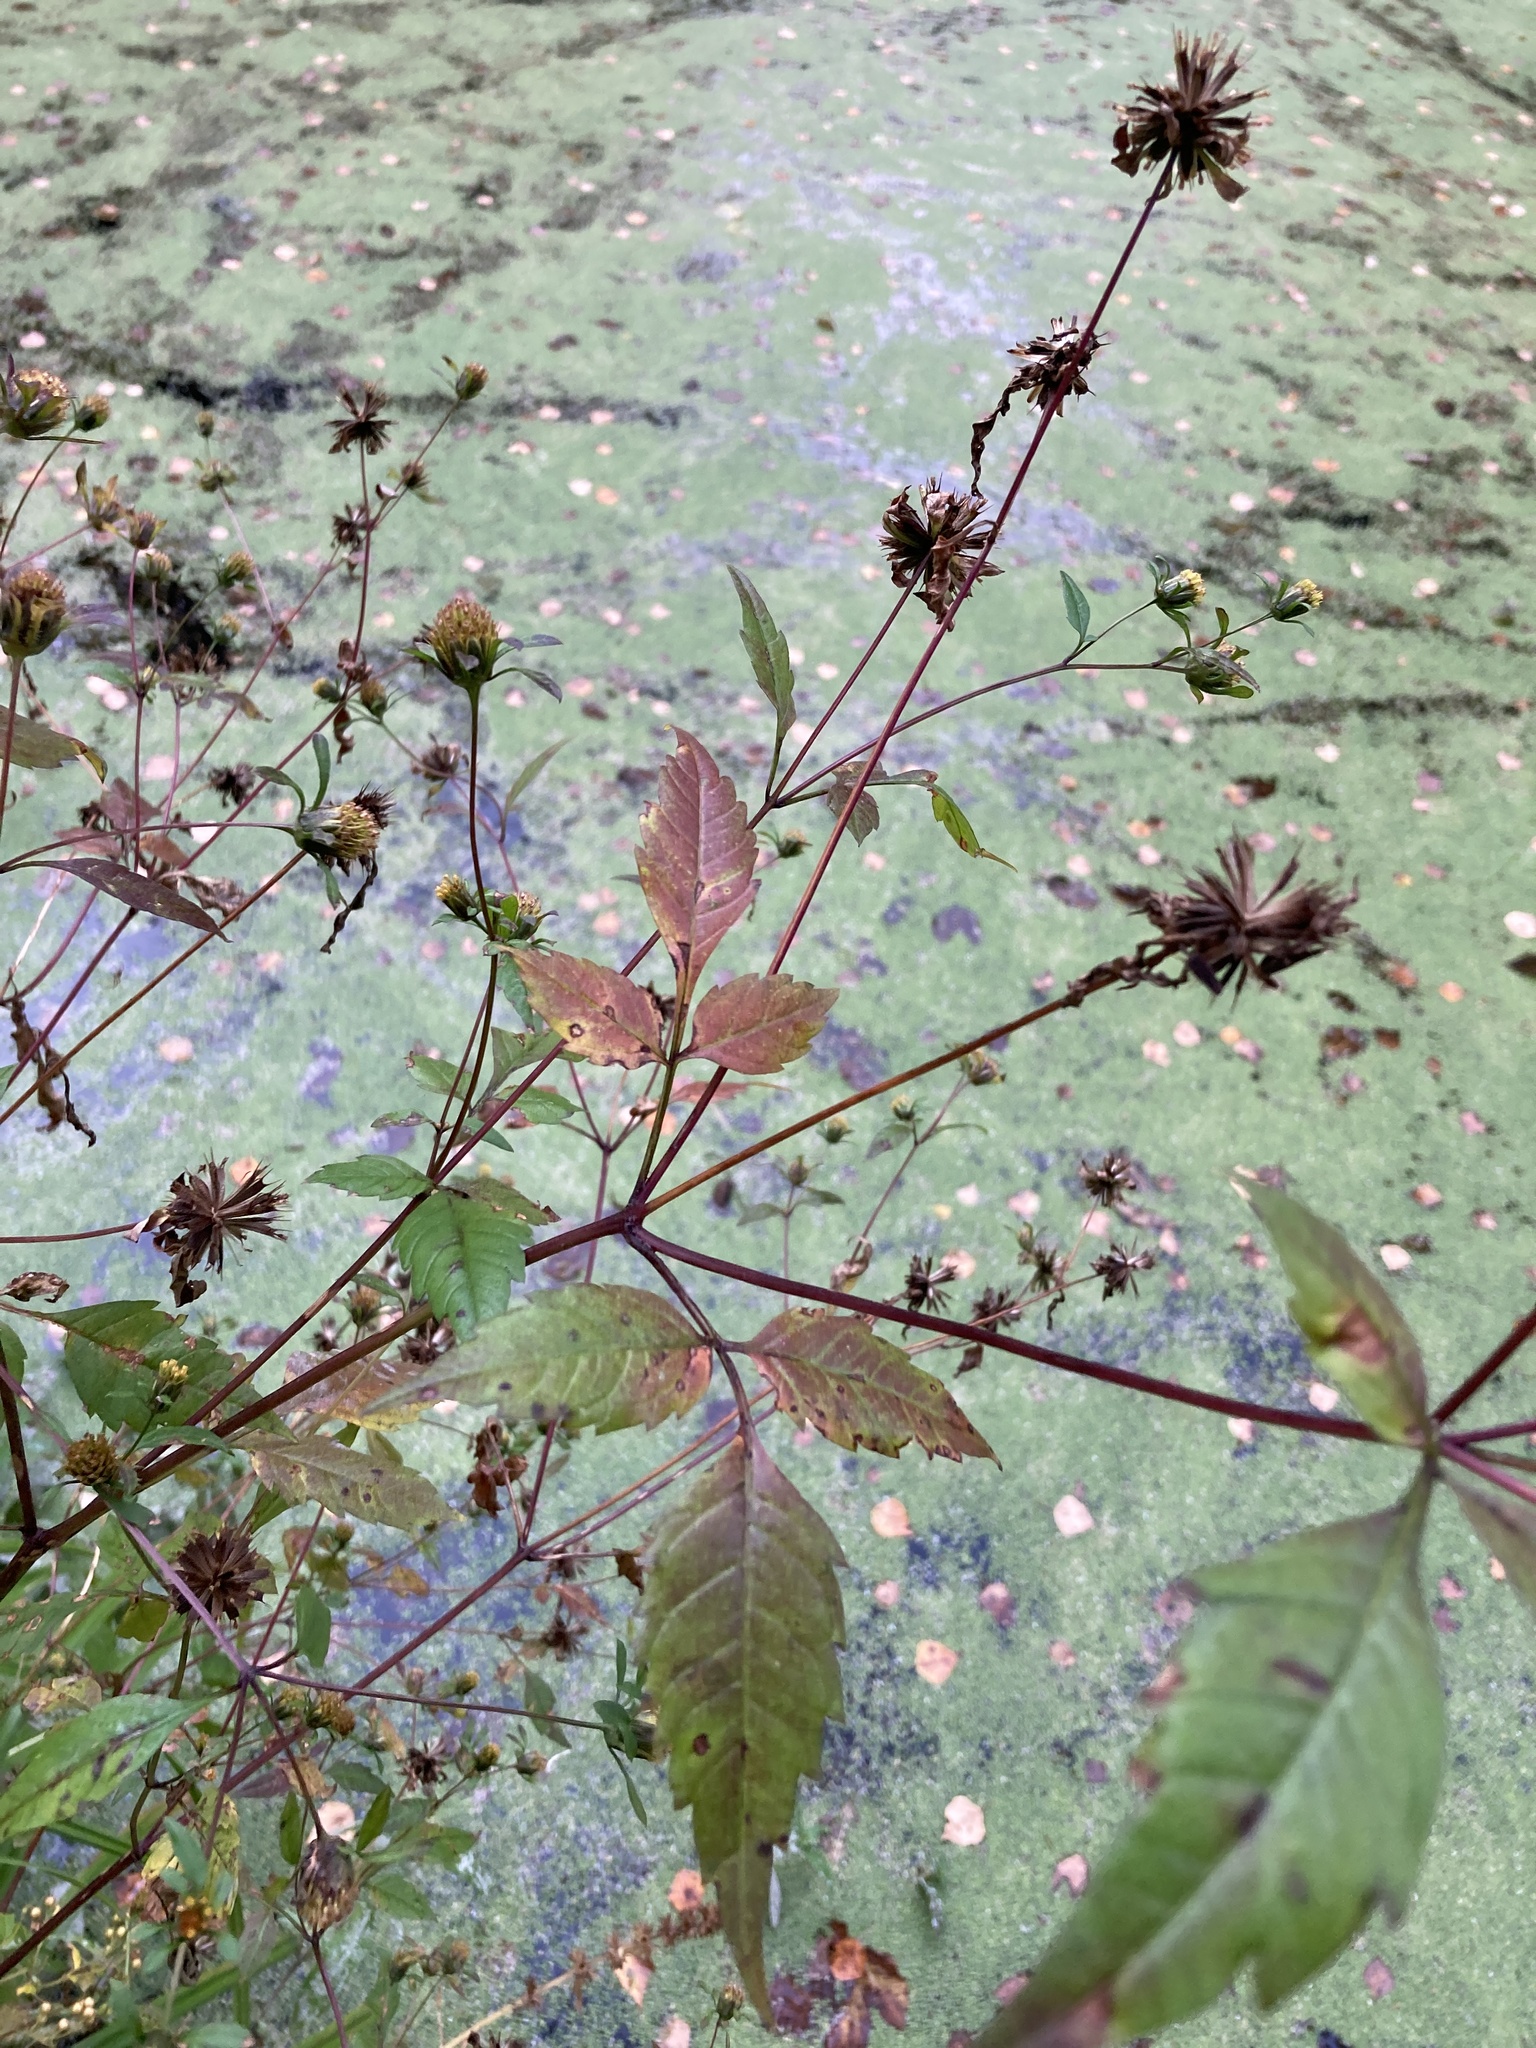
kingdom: Plantae
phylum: Tracheophyta
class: Magnoliopsida
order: Asterales
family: Asteraceae
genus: Bidens
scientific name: Bidens frondosa
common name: Beggarticks
